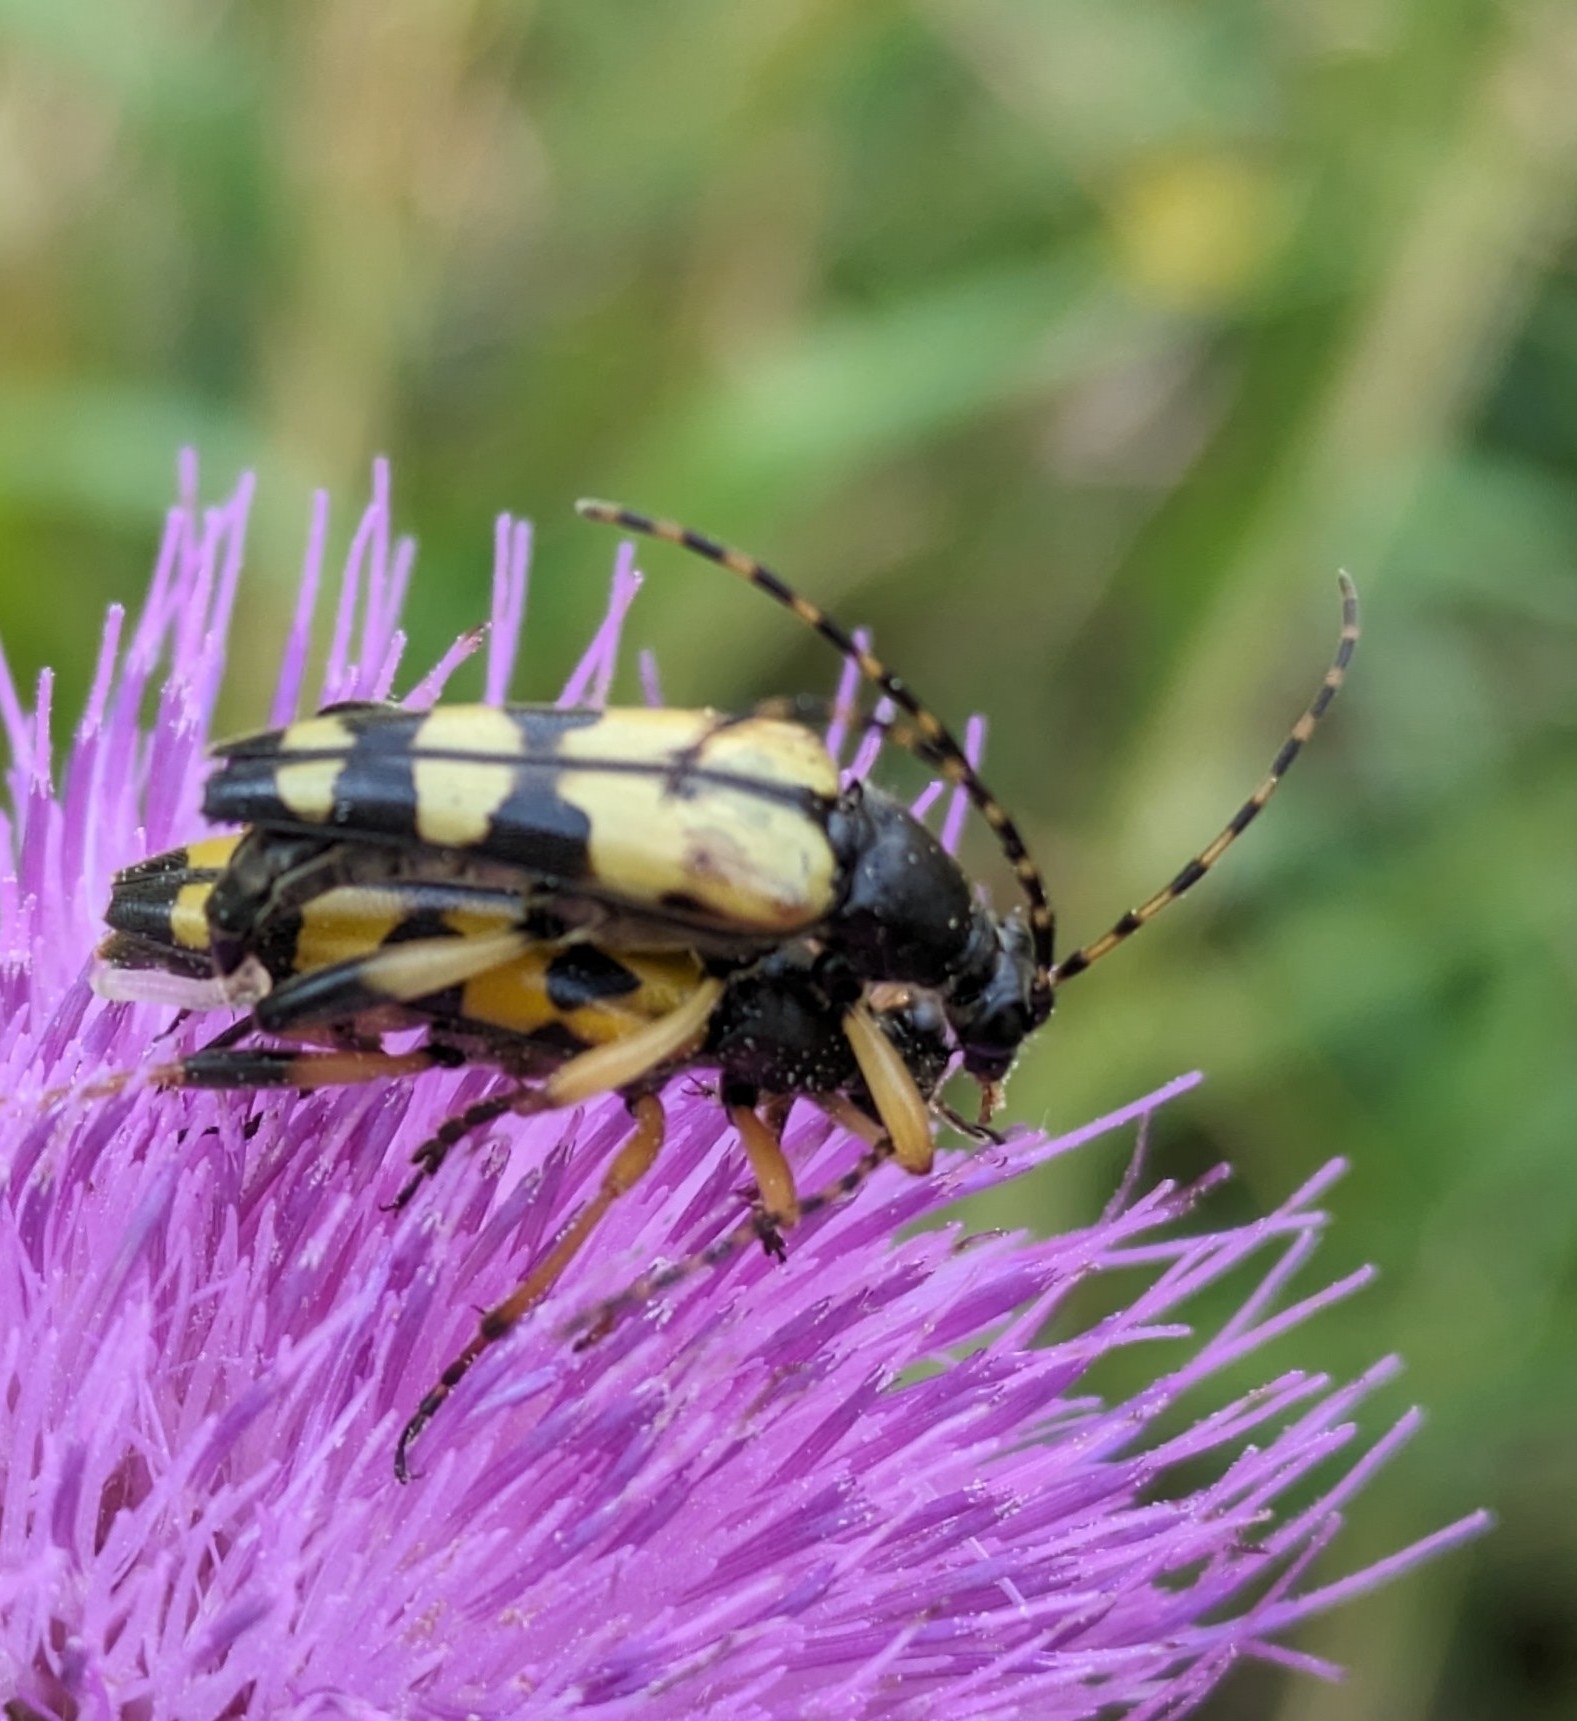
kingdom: Animalia
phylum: Arthropoda
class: Insecta
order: Coleoptera
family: Cerambycidae
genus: Rutpela
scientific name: Rutpela maculata
